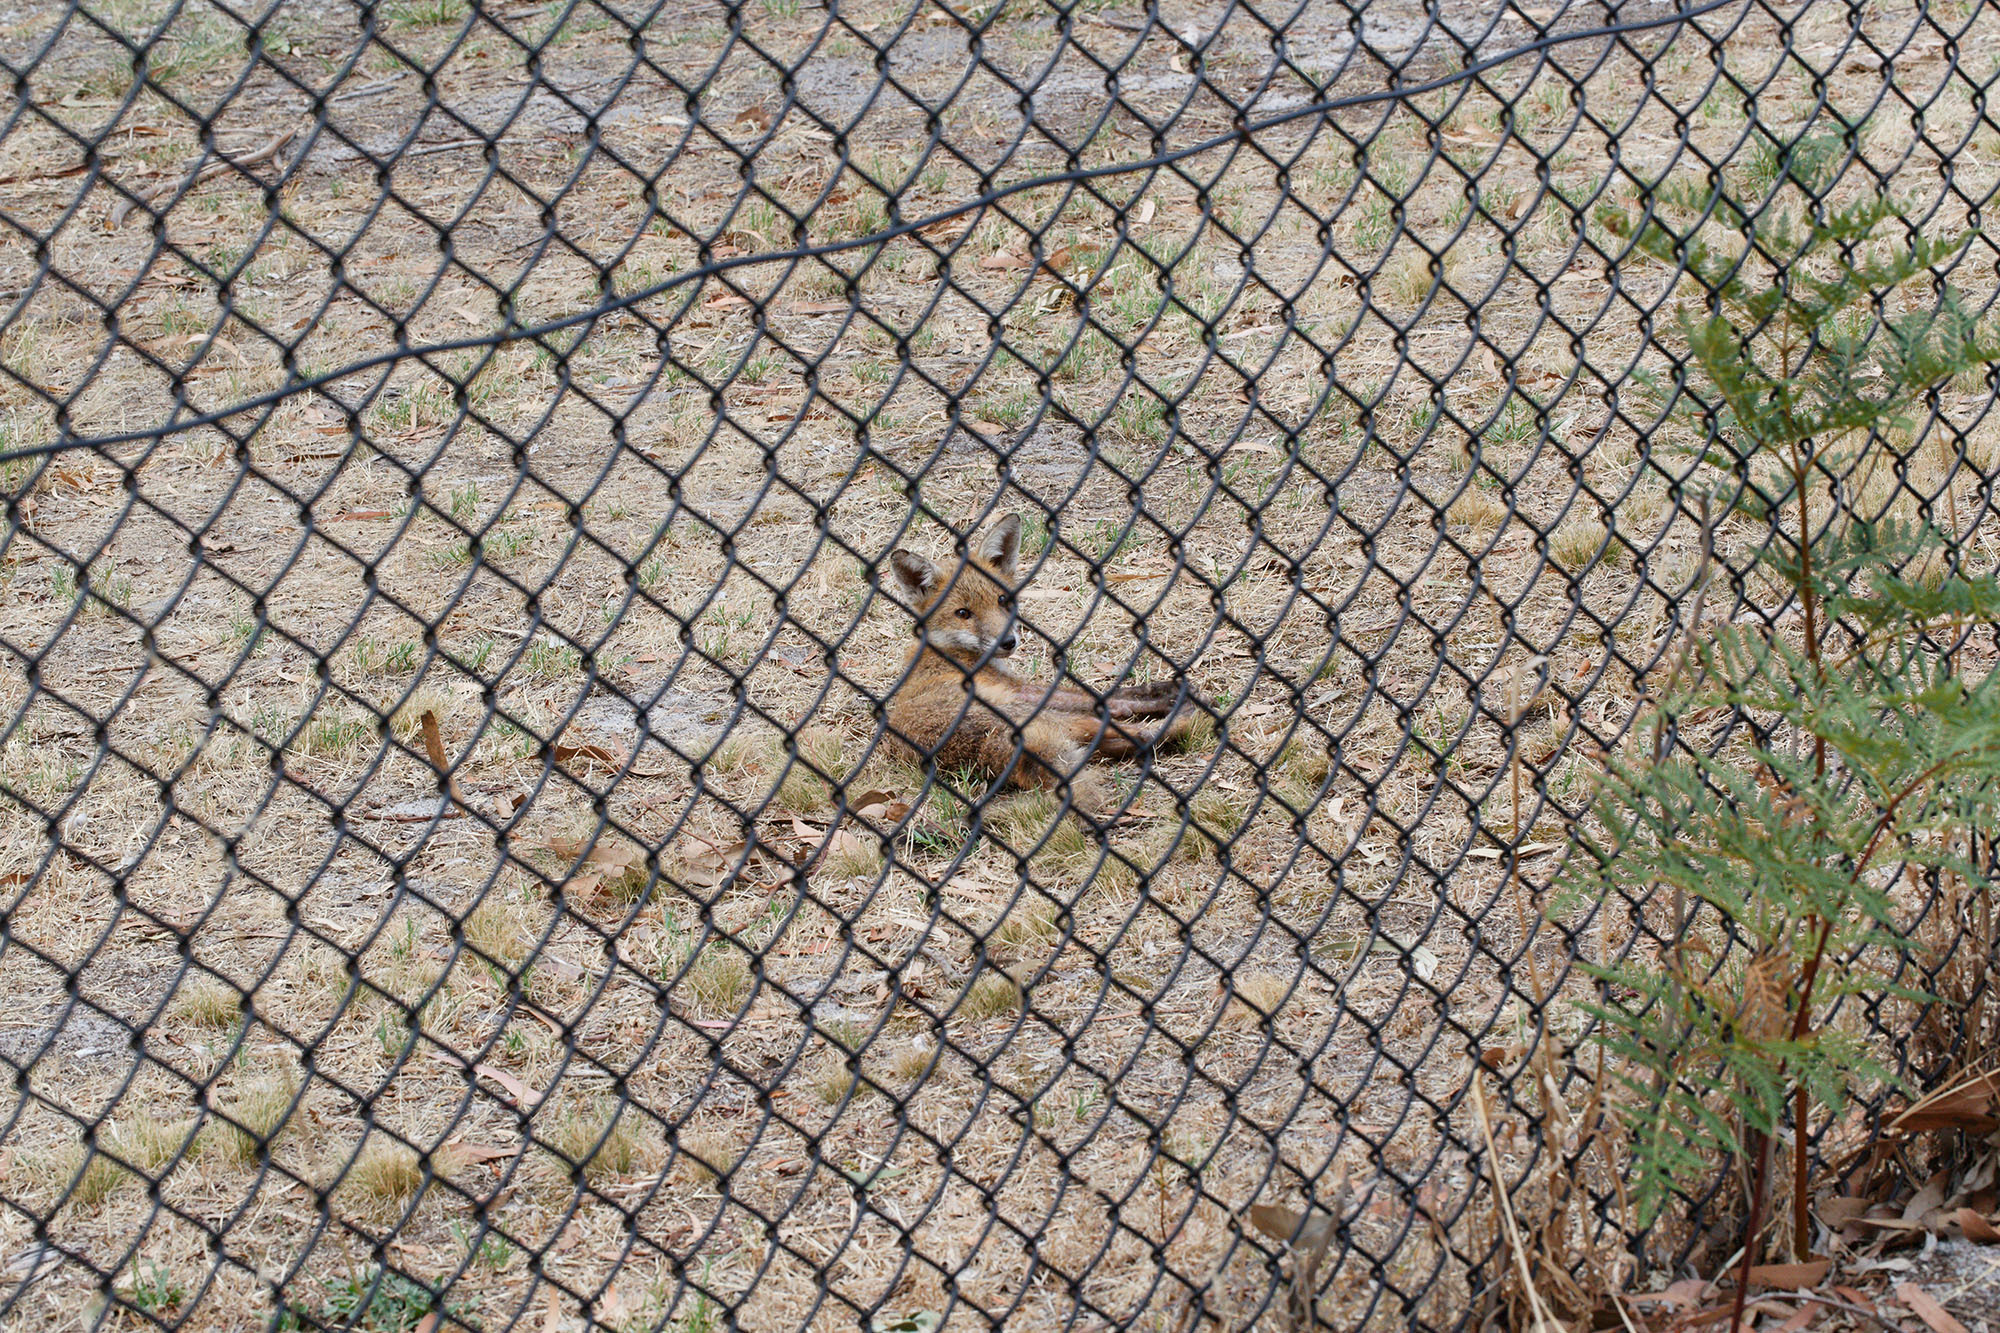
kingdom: Animalia
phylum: Chordata
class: Mammalia
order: Carnivora
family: Canidae
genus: Vulpes
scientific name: Vulpes vulpes
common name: Red fox
